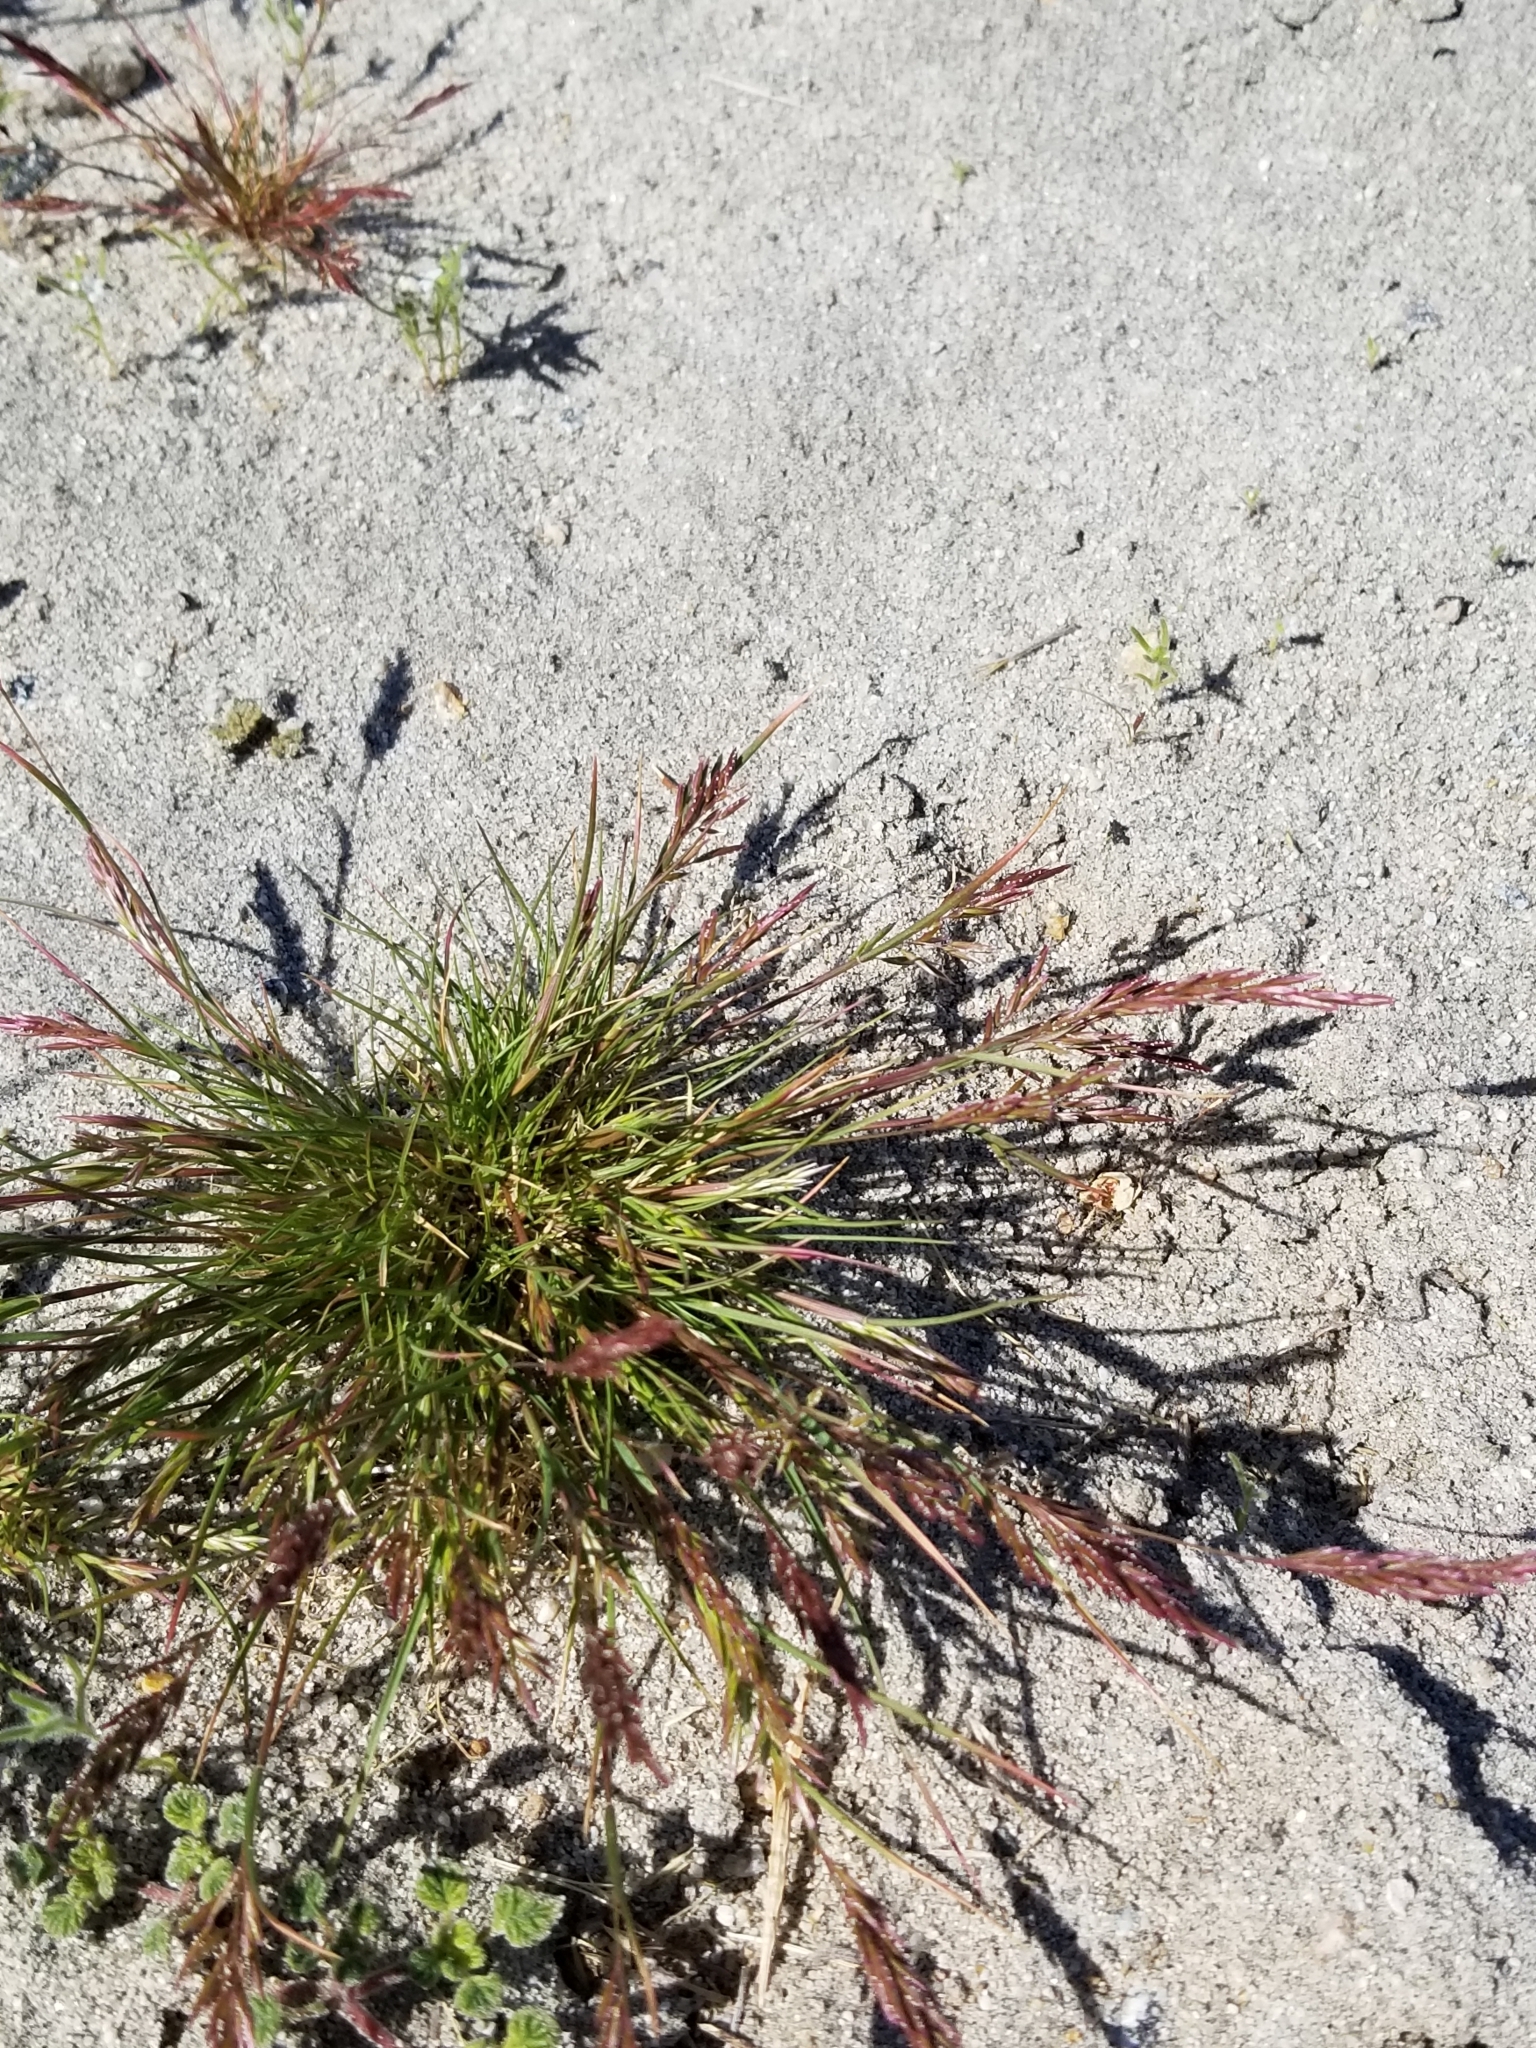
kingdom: Plantae
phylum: Tracheophyta
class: Liliopsida
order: Poales
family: Poaceae
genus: Schismus
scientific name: Schismus barbatus
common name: Kelch-grass
